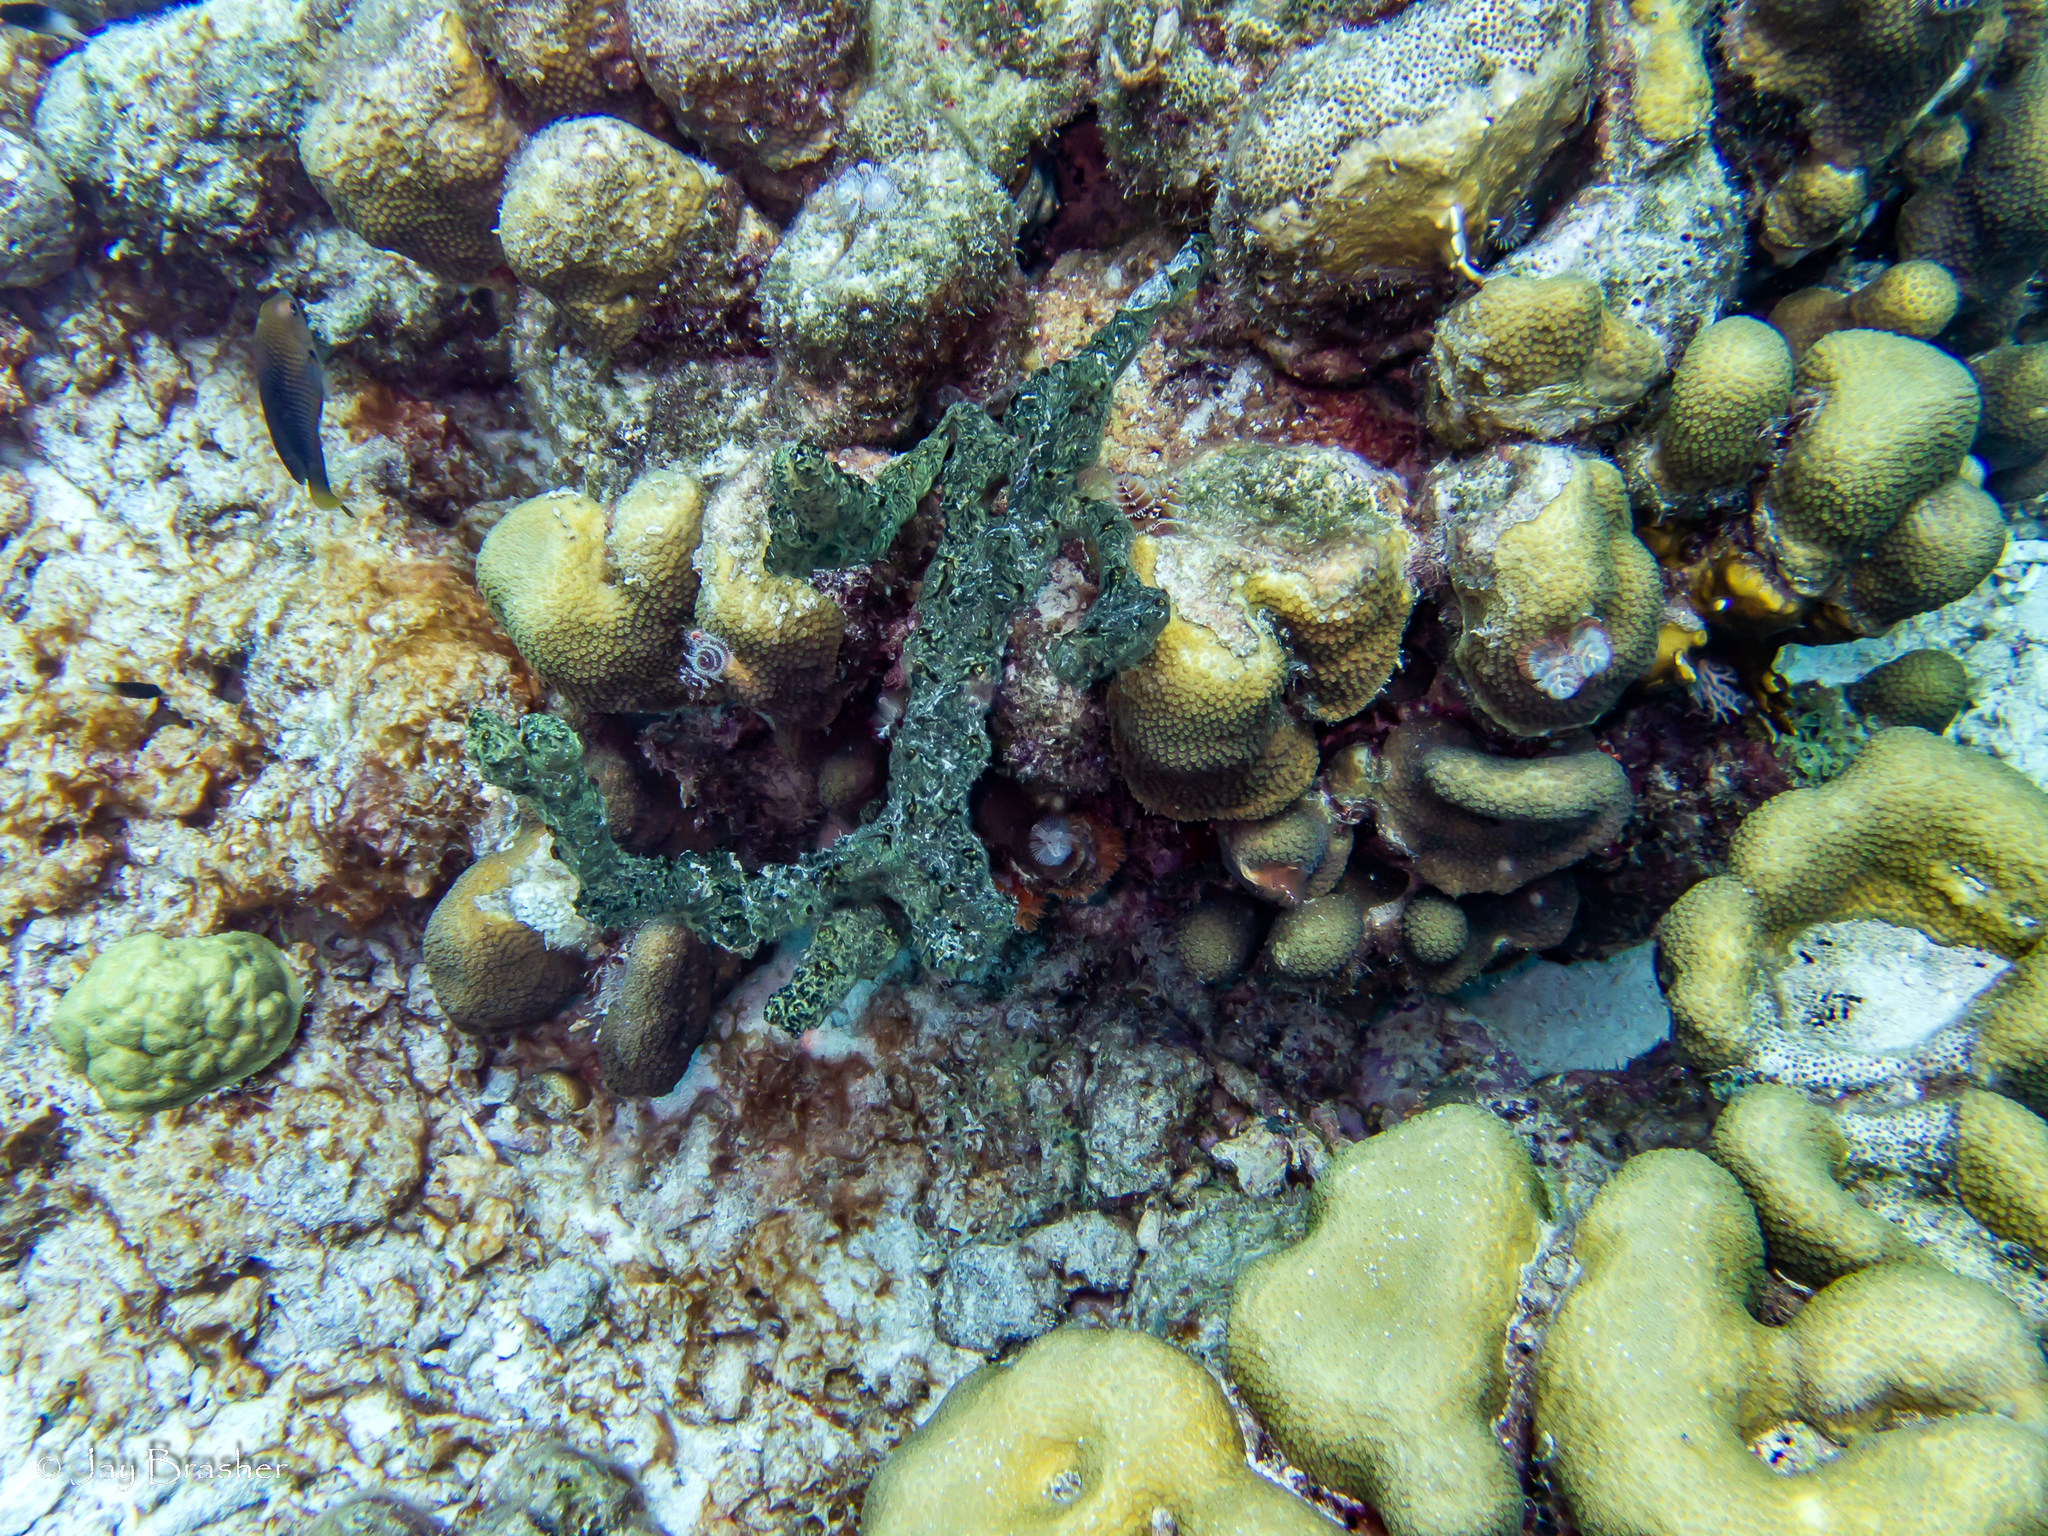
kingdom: Animalia
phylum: Porifera
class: Demospongiae
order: Poecilosclerida
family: Iotrochotidae
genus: Iotrochota
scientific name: Iotrochota birotulata
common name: Purple bleeding sponge
